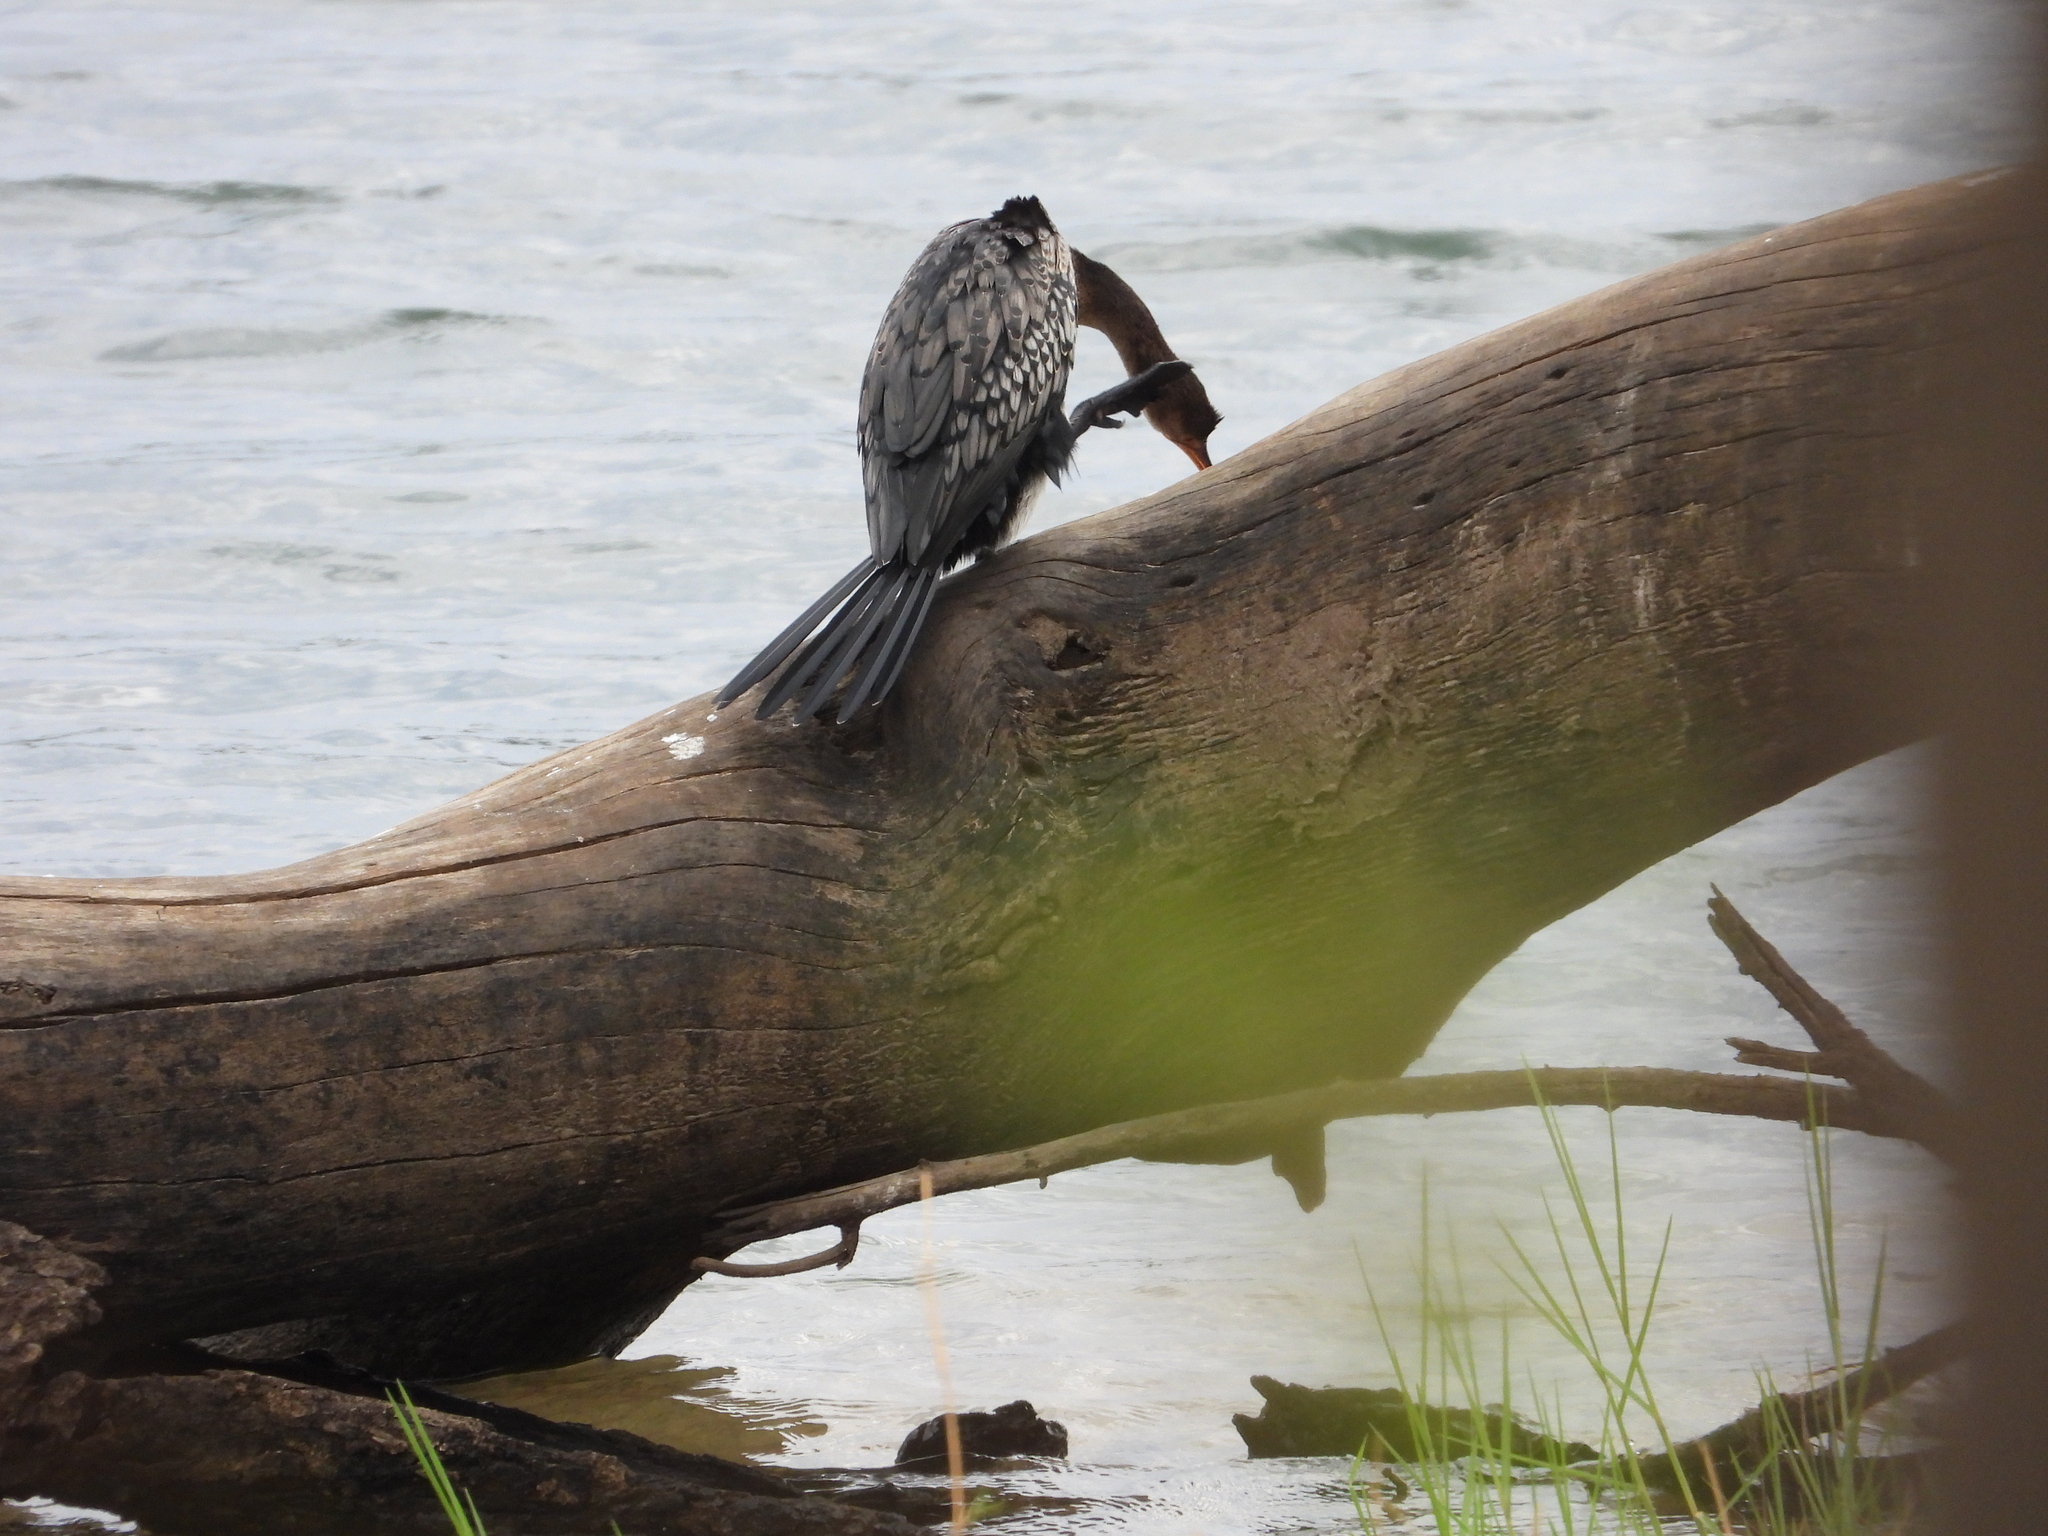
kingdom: Animalia
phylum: Chordata
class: Aves
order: Suliformes
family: Phalacrocoracidae
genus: Microcarbo
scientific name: Microcarbo africanus
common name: Long-tailed cormorant
